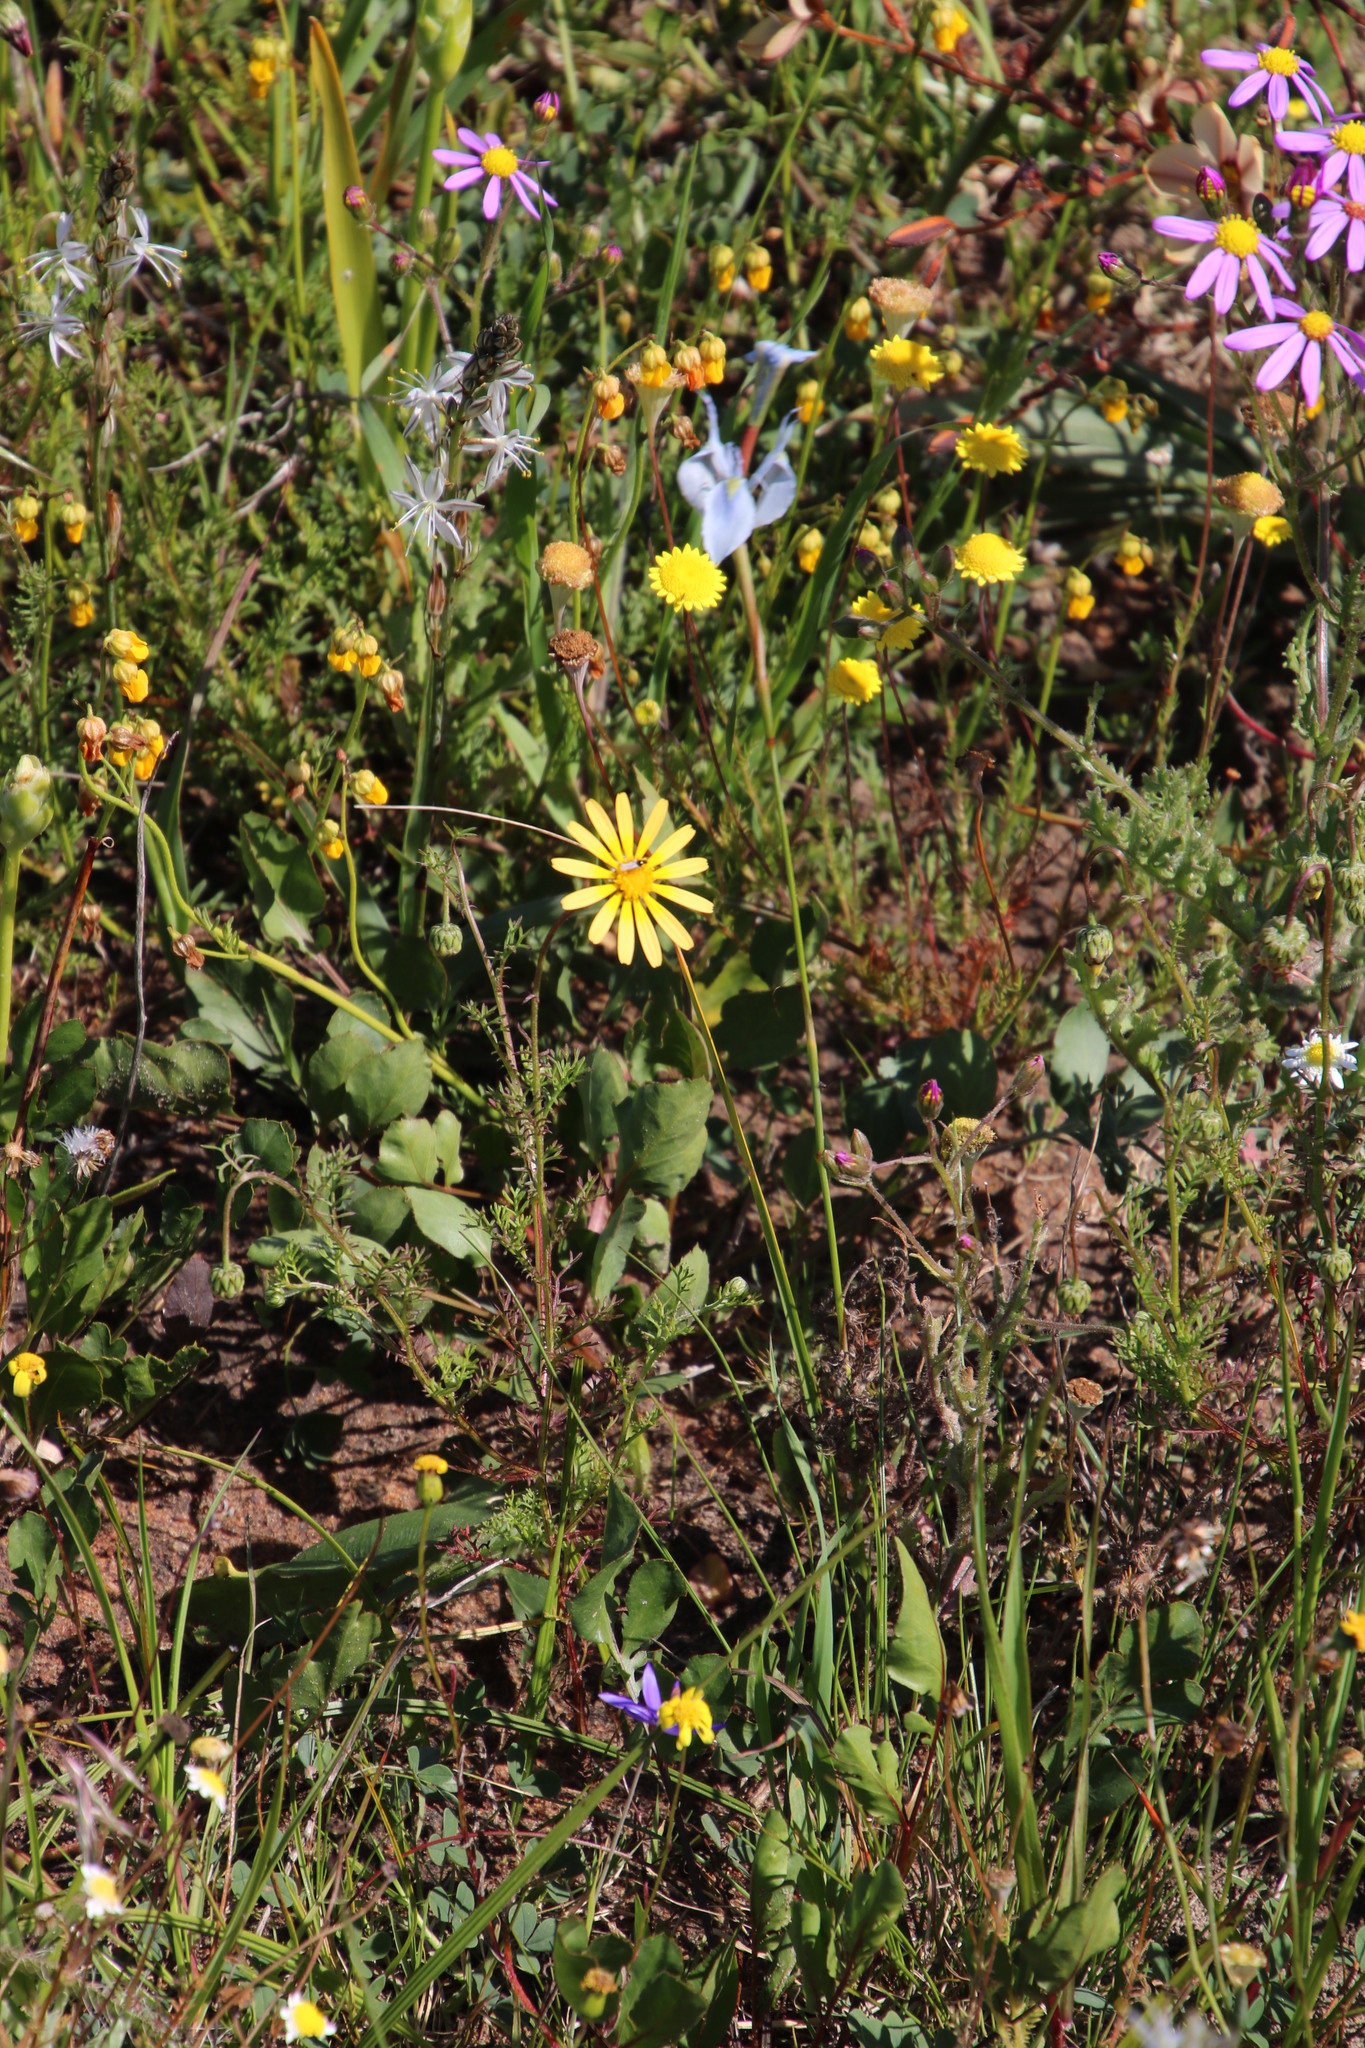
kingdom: Plantae
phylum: Tracheophyta
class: Liliopsida
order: Asparagales
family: Iridaceae
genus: Moraea
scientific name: Moraea tripetala
